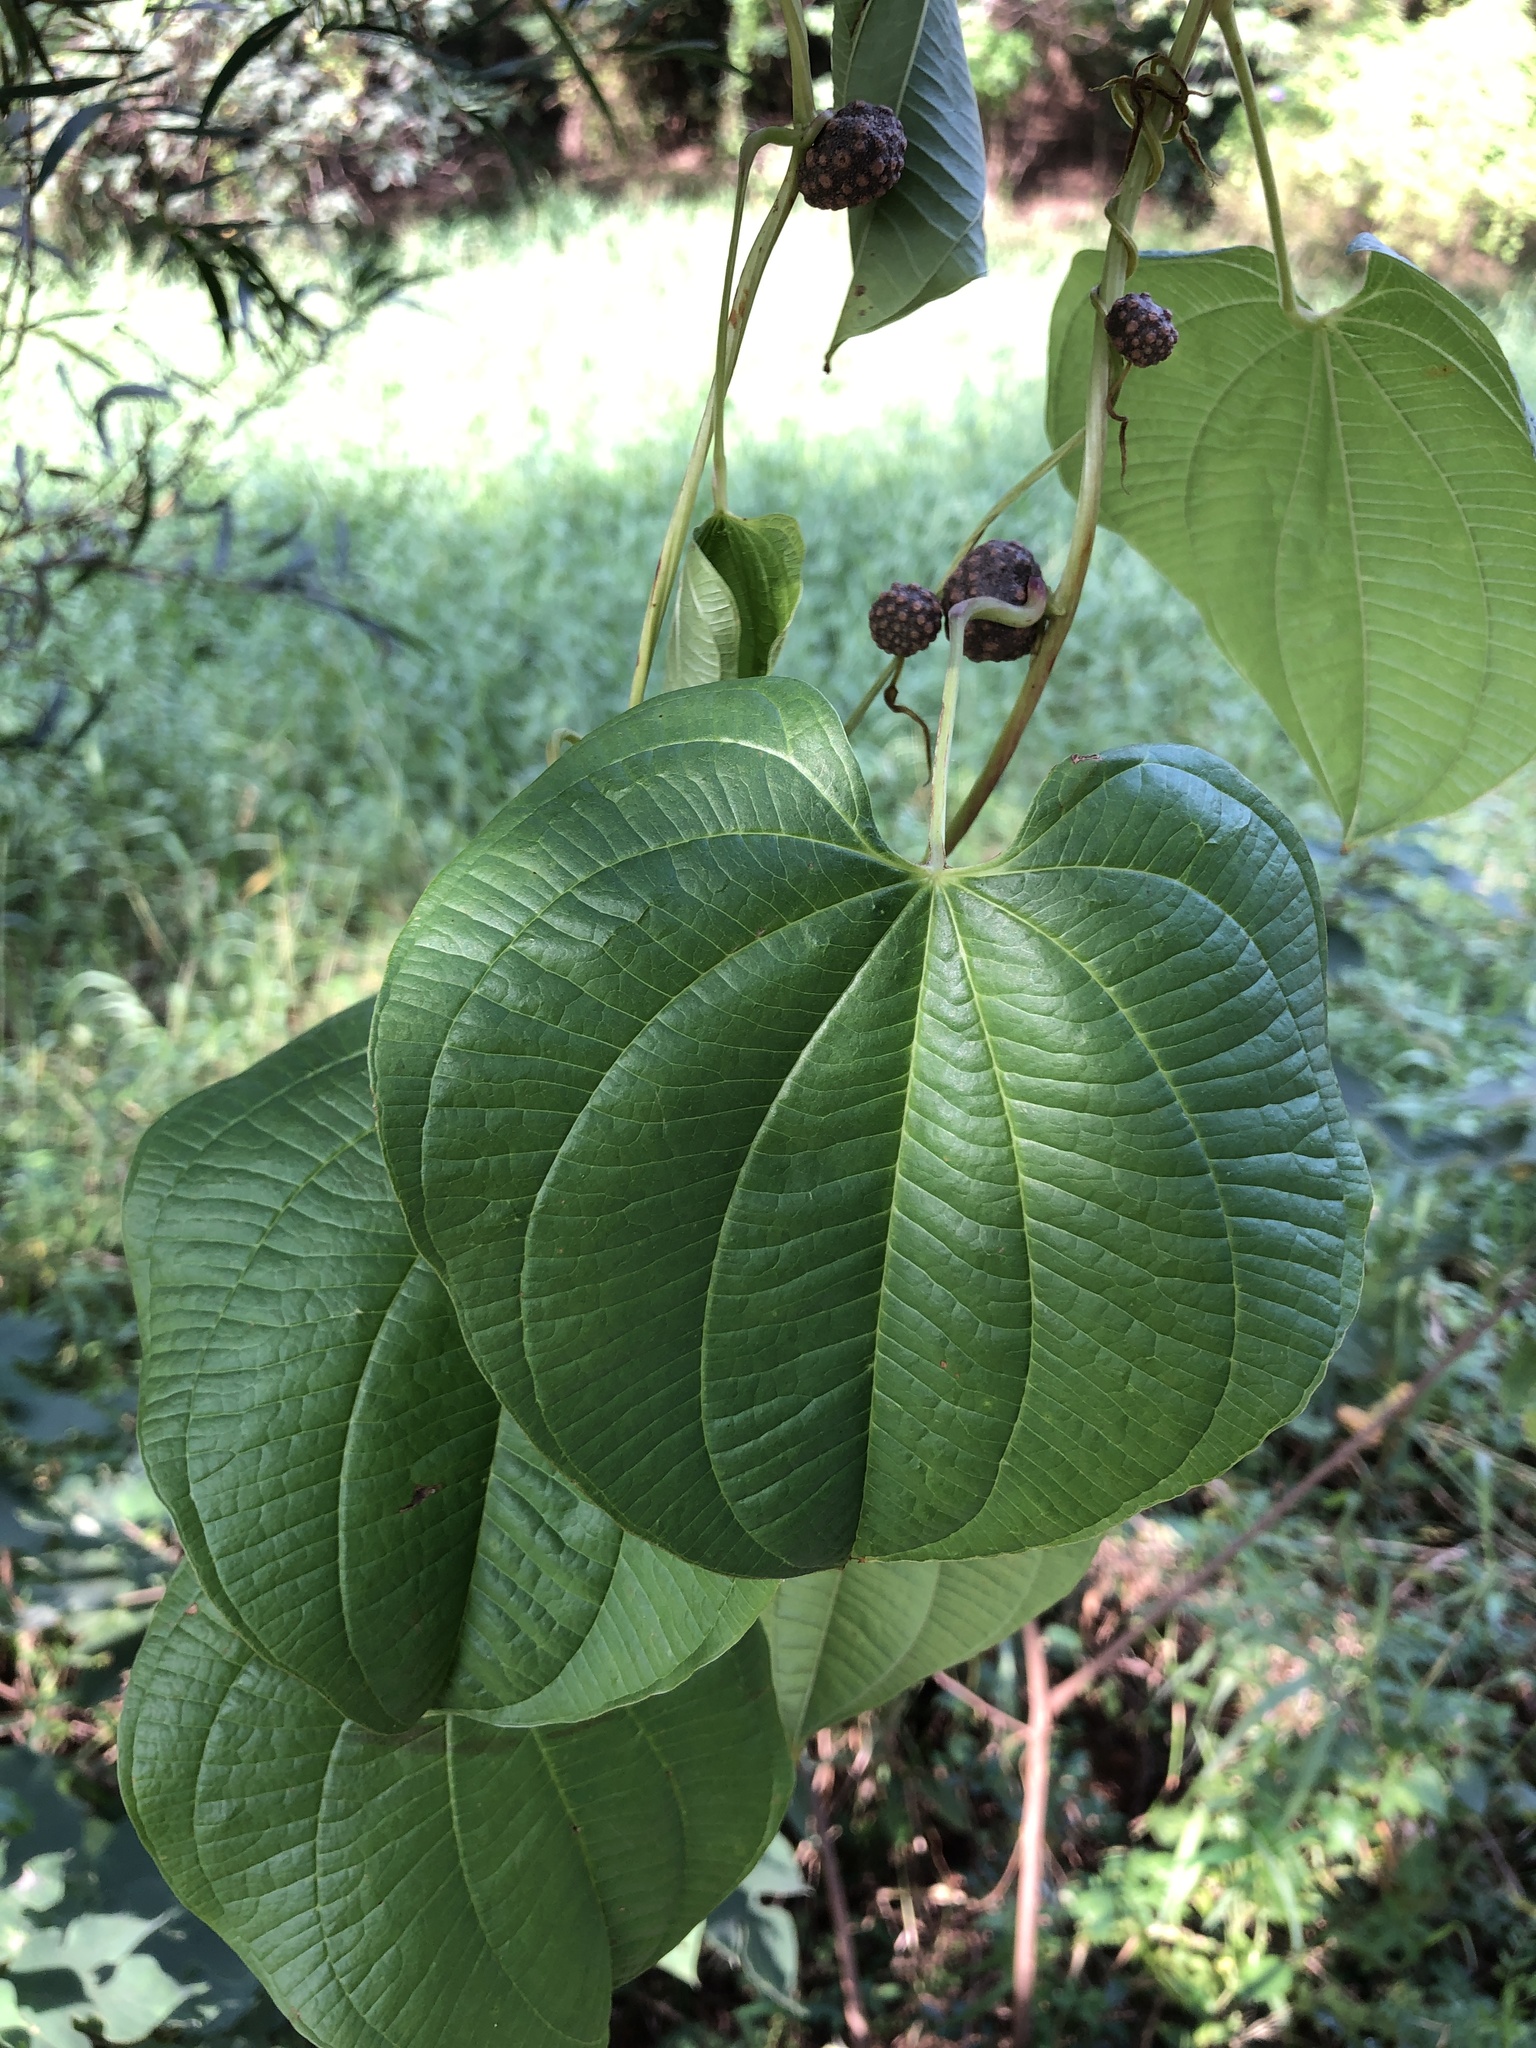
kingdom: Plantae
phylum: Tracheophyta
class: Liliopsida
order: Dioscoreales
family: Dioscoreaceae
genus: Dioscorea
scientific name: Dioscorea bulbifera
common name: Air yam
